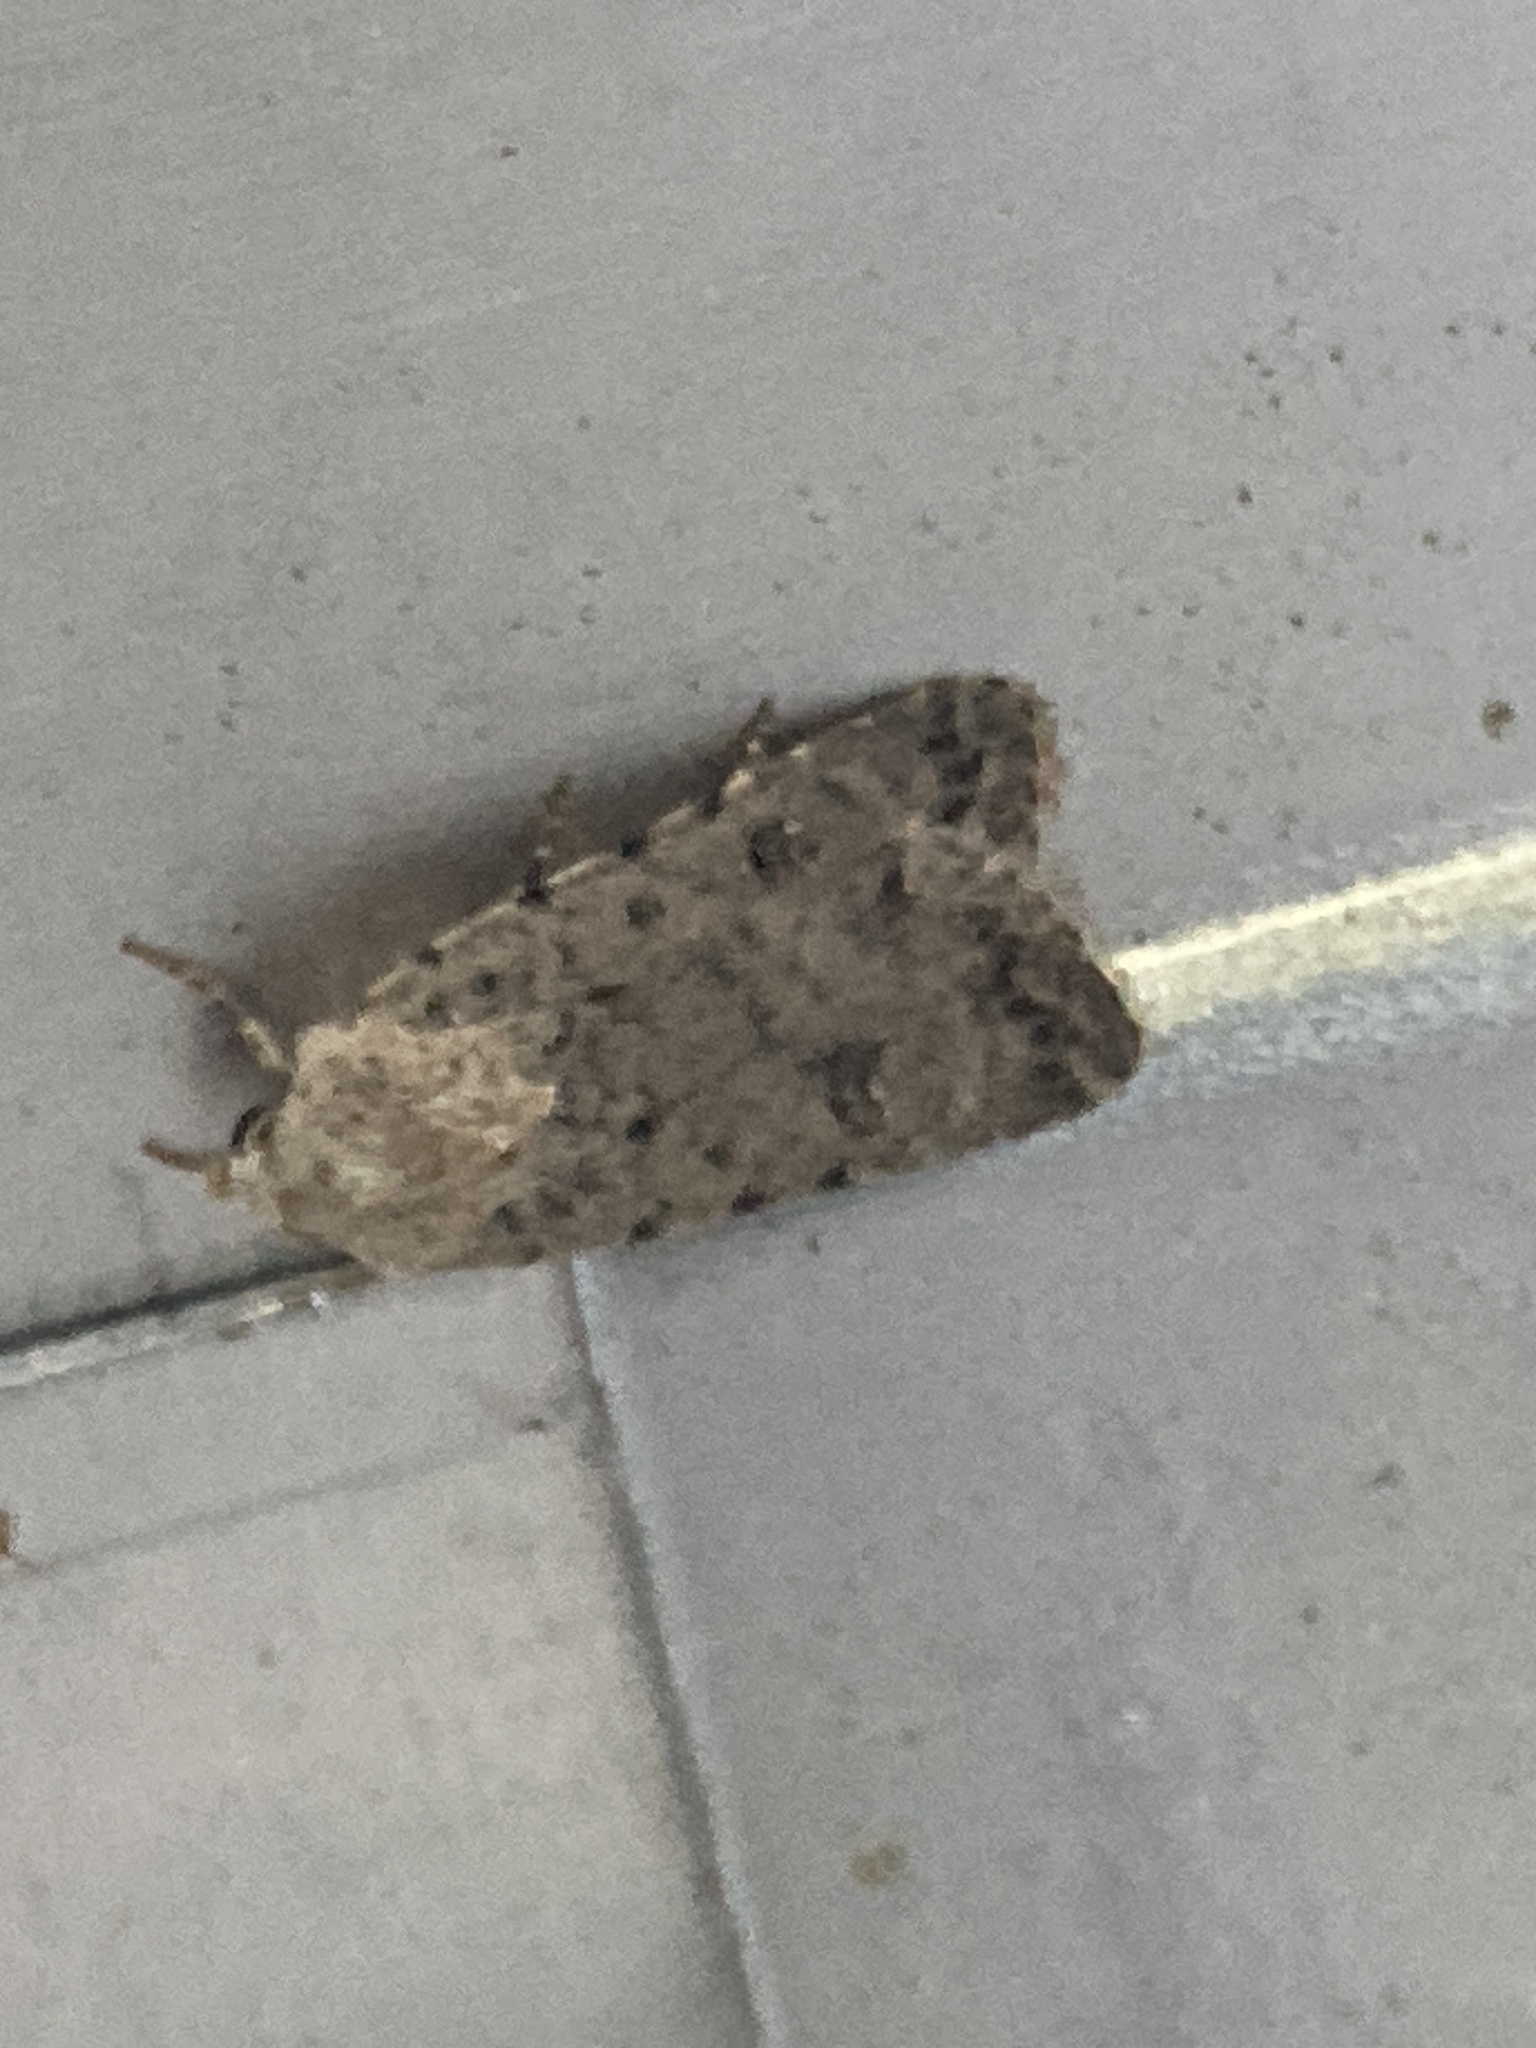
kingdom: Animalia
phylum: Arthropoda
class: Insecta
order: Lepidoptera
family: Noctuidae
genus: Caradrina
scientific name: Caradrina clavipalpis
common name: Pale mottled willow
